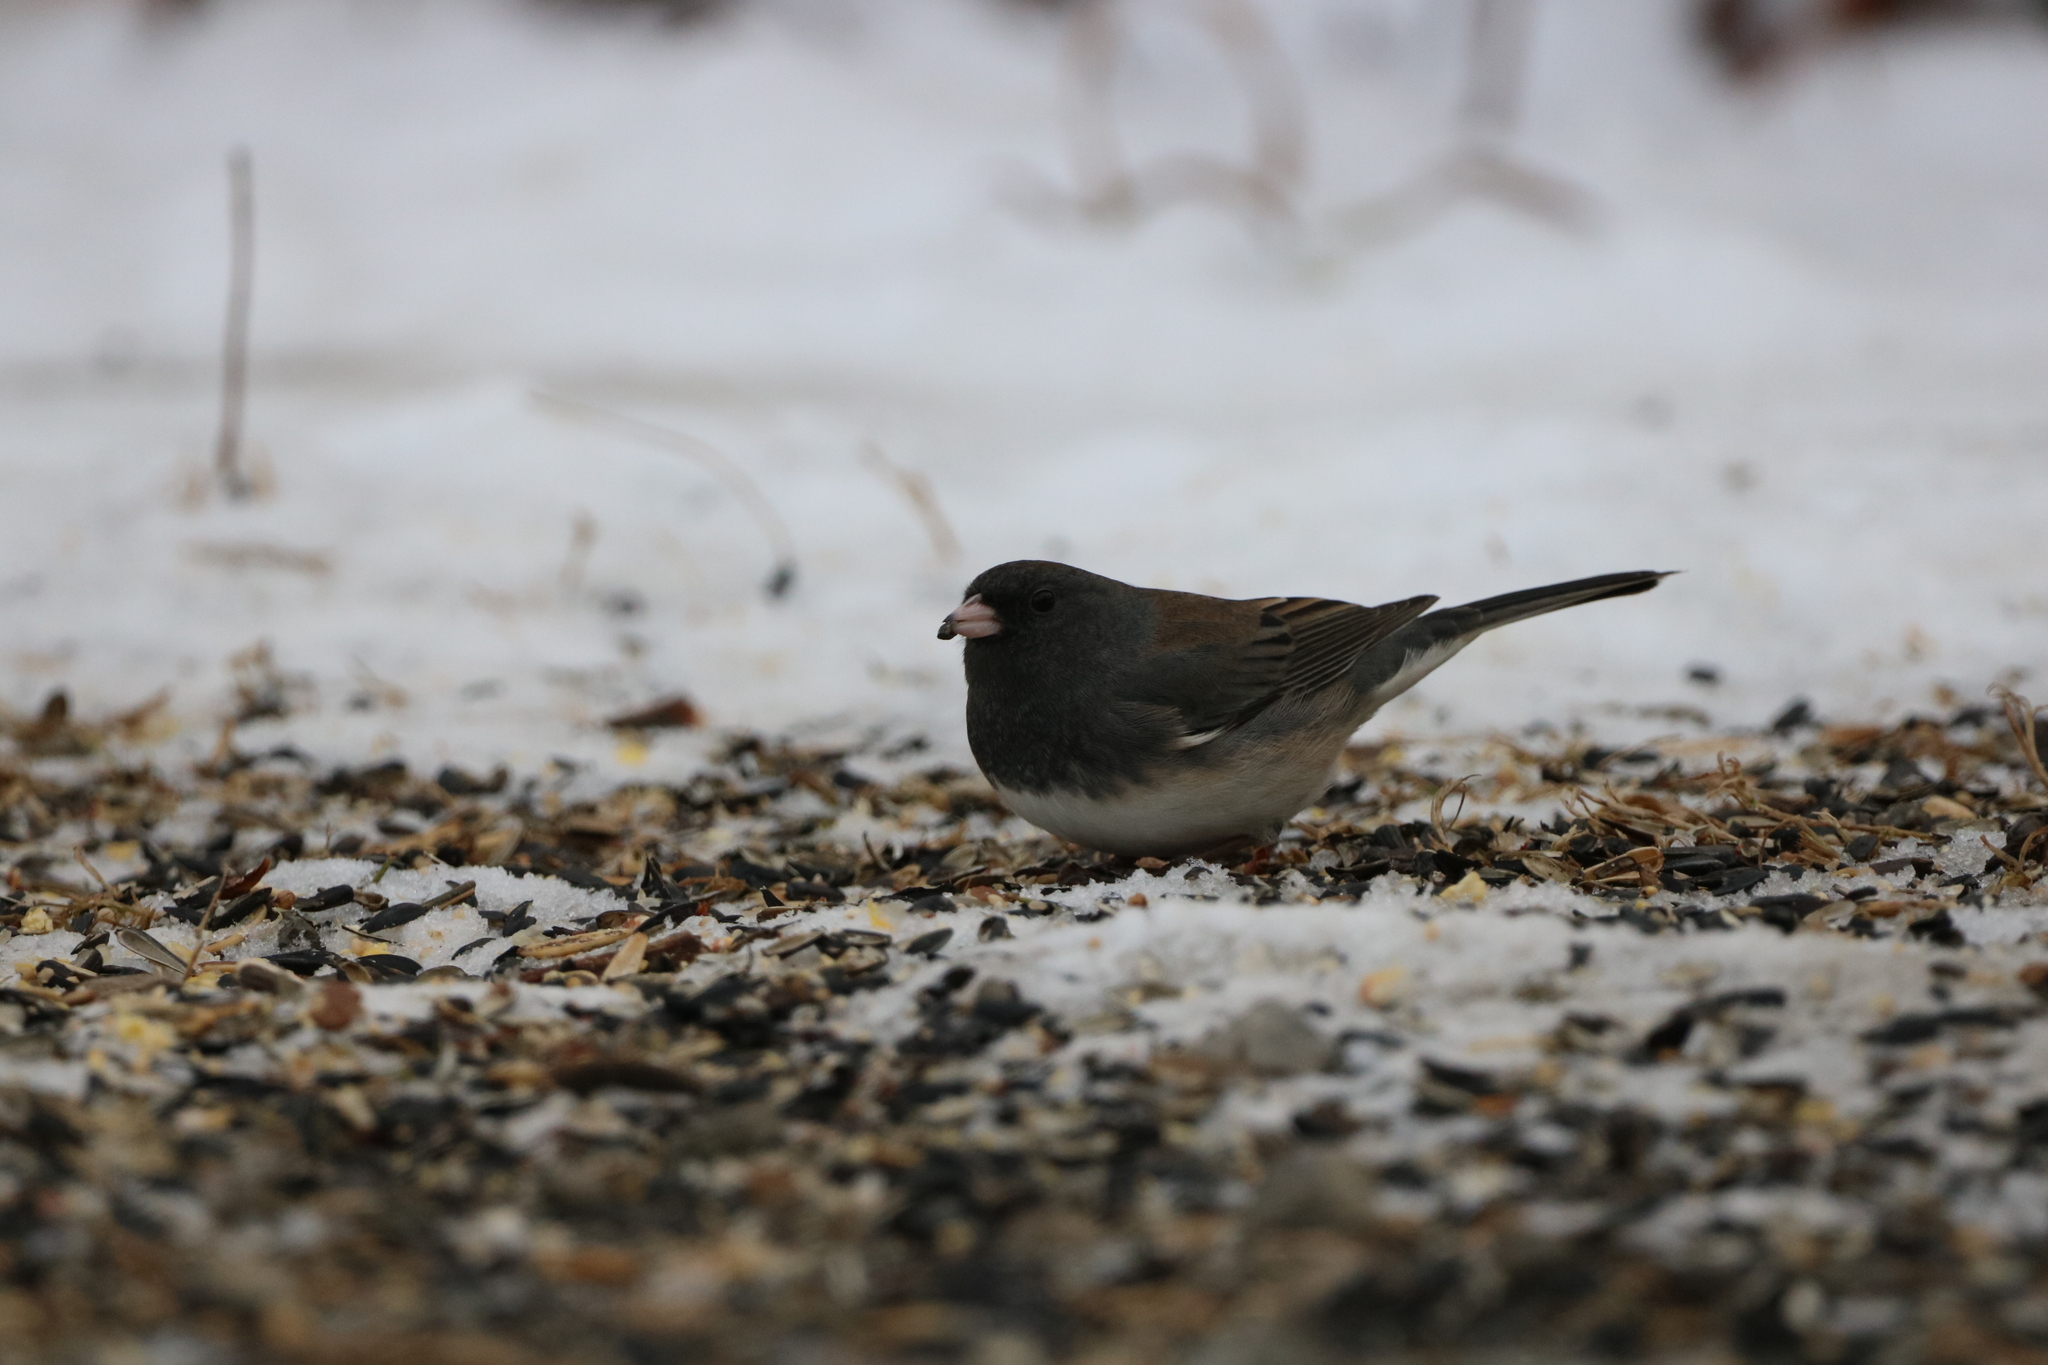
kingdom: Animalia
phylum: Chordata
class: Aves
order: Passeriformes
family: Passerellidae
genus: Junco
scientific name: Junco hyemalis
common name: Dark-eyed junco
